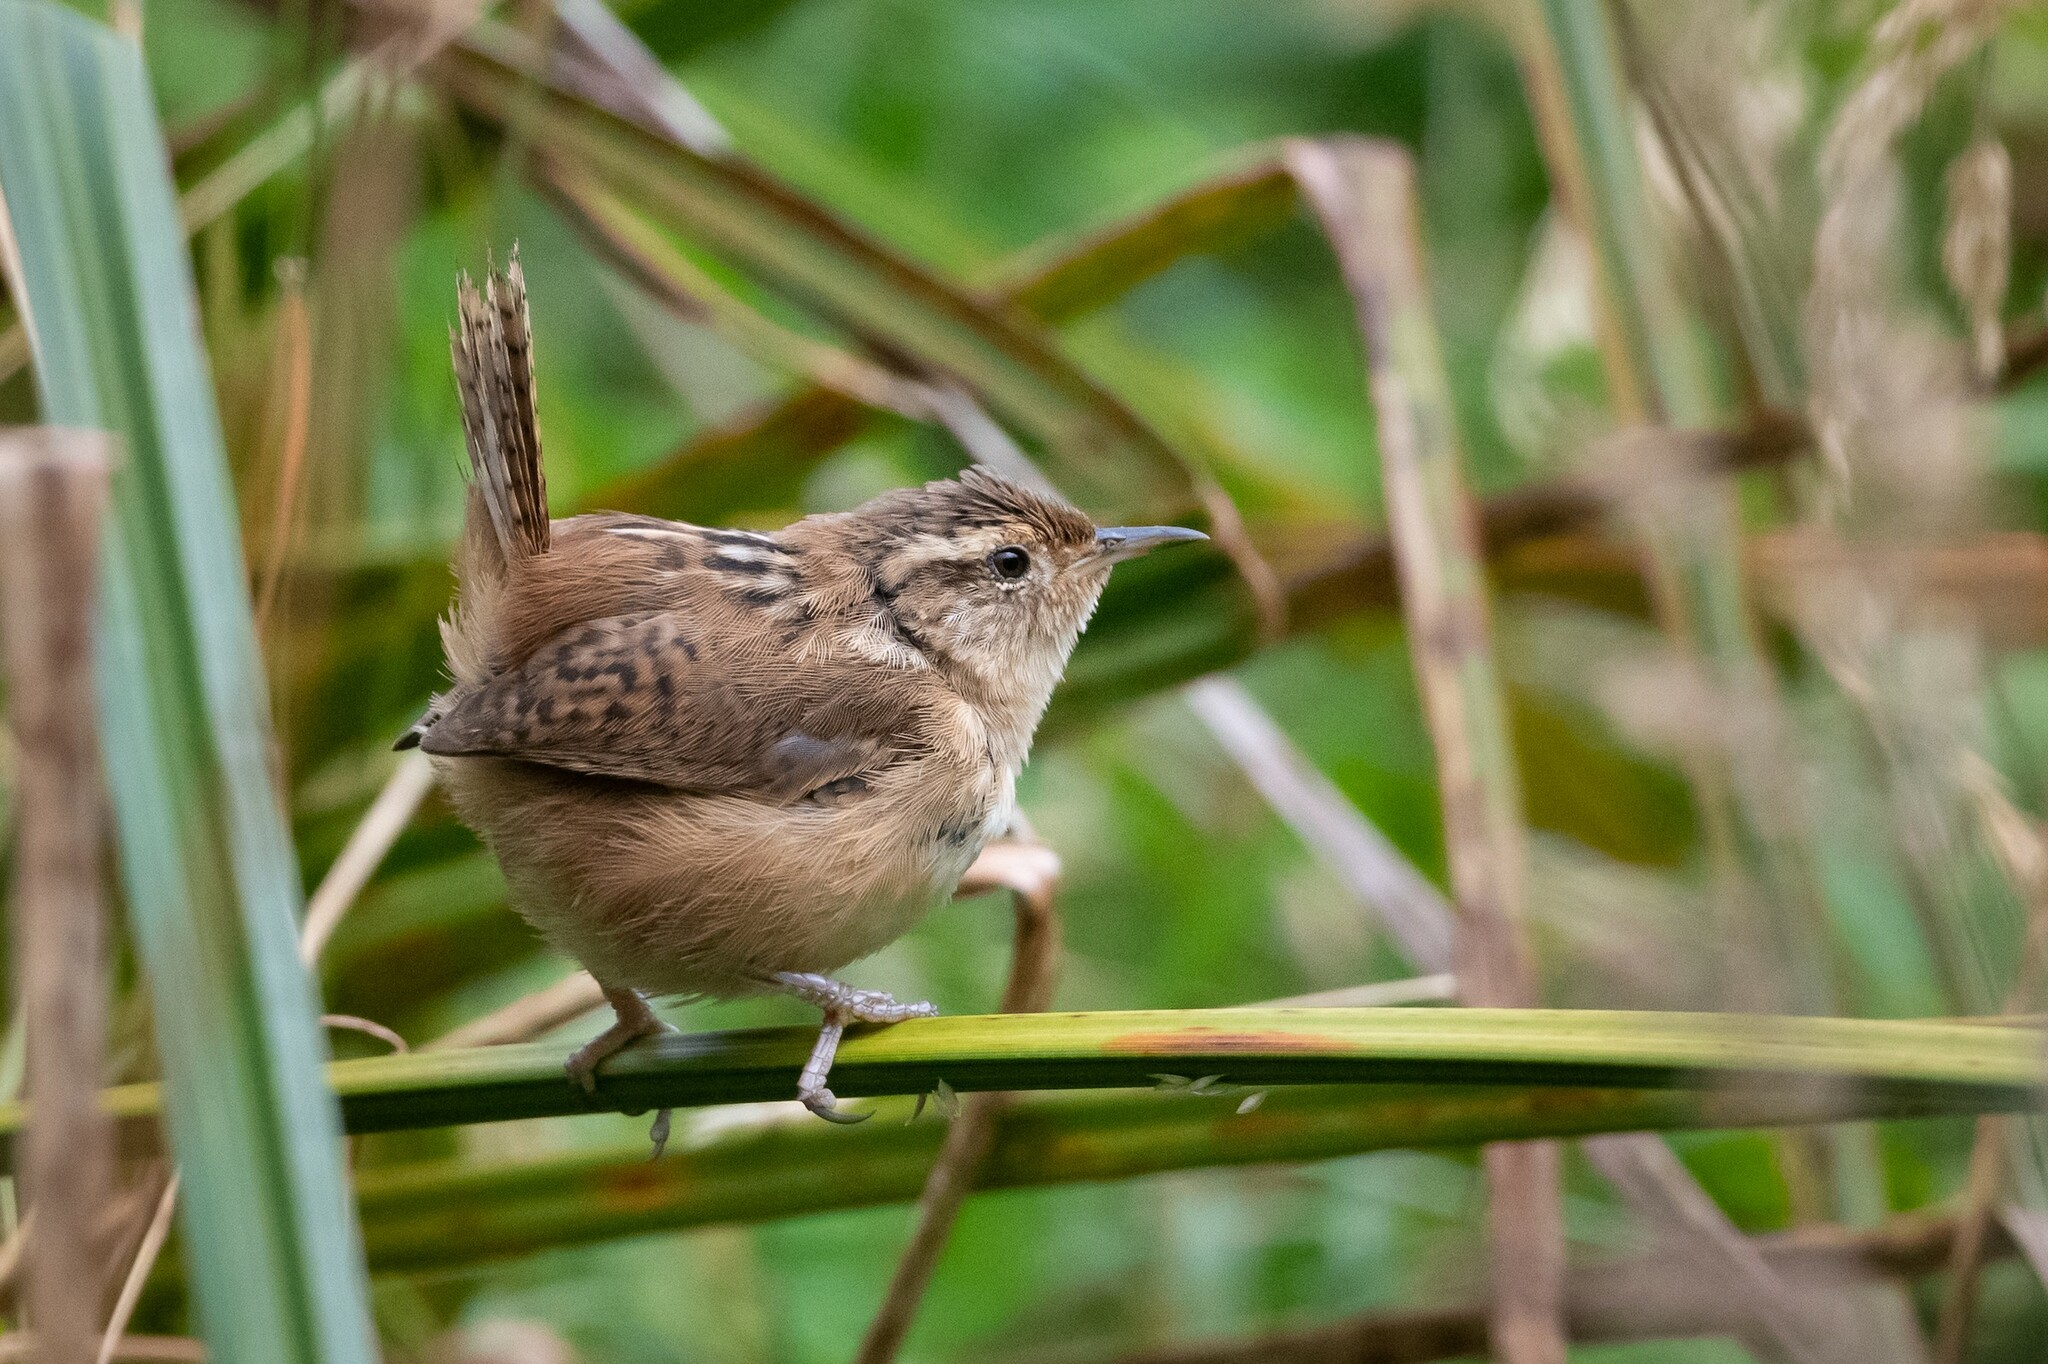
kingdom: Animalia
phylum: Chordata
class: Aves
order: Passeriformes
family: Troglodytidae
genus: Cistothorus
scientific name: Cistothorus platensis
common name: Sedge wren
